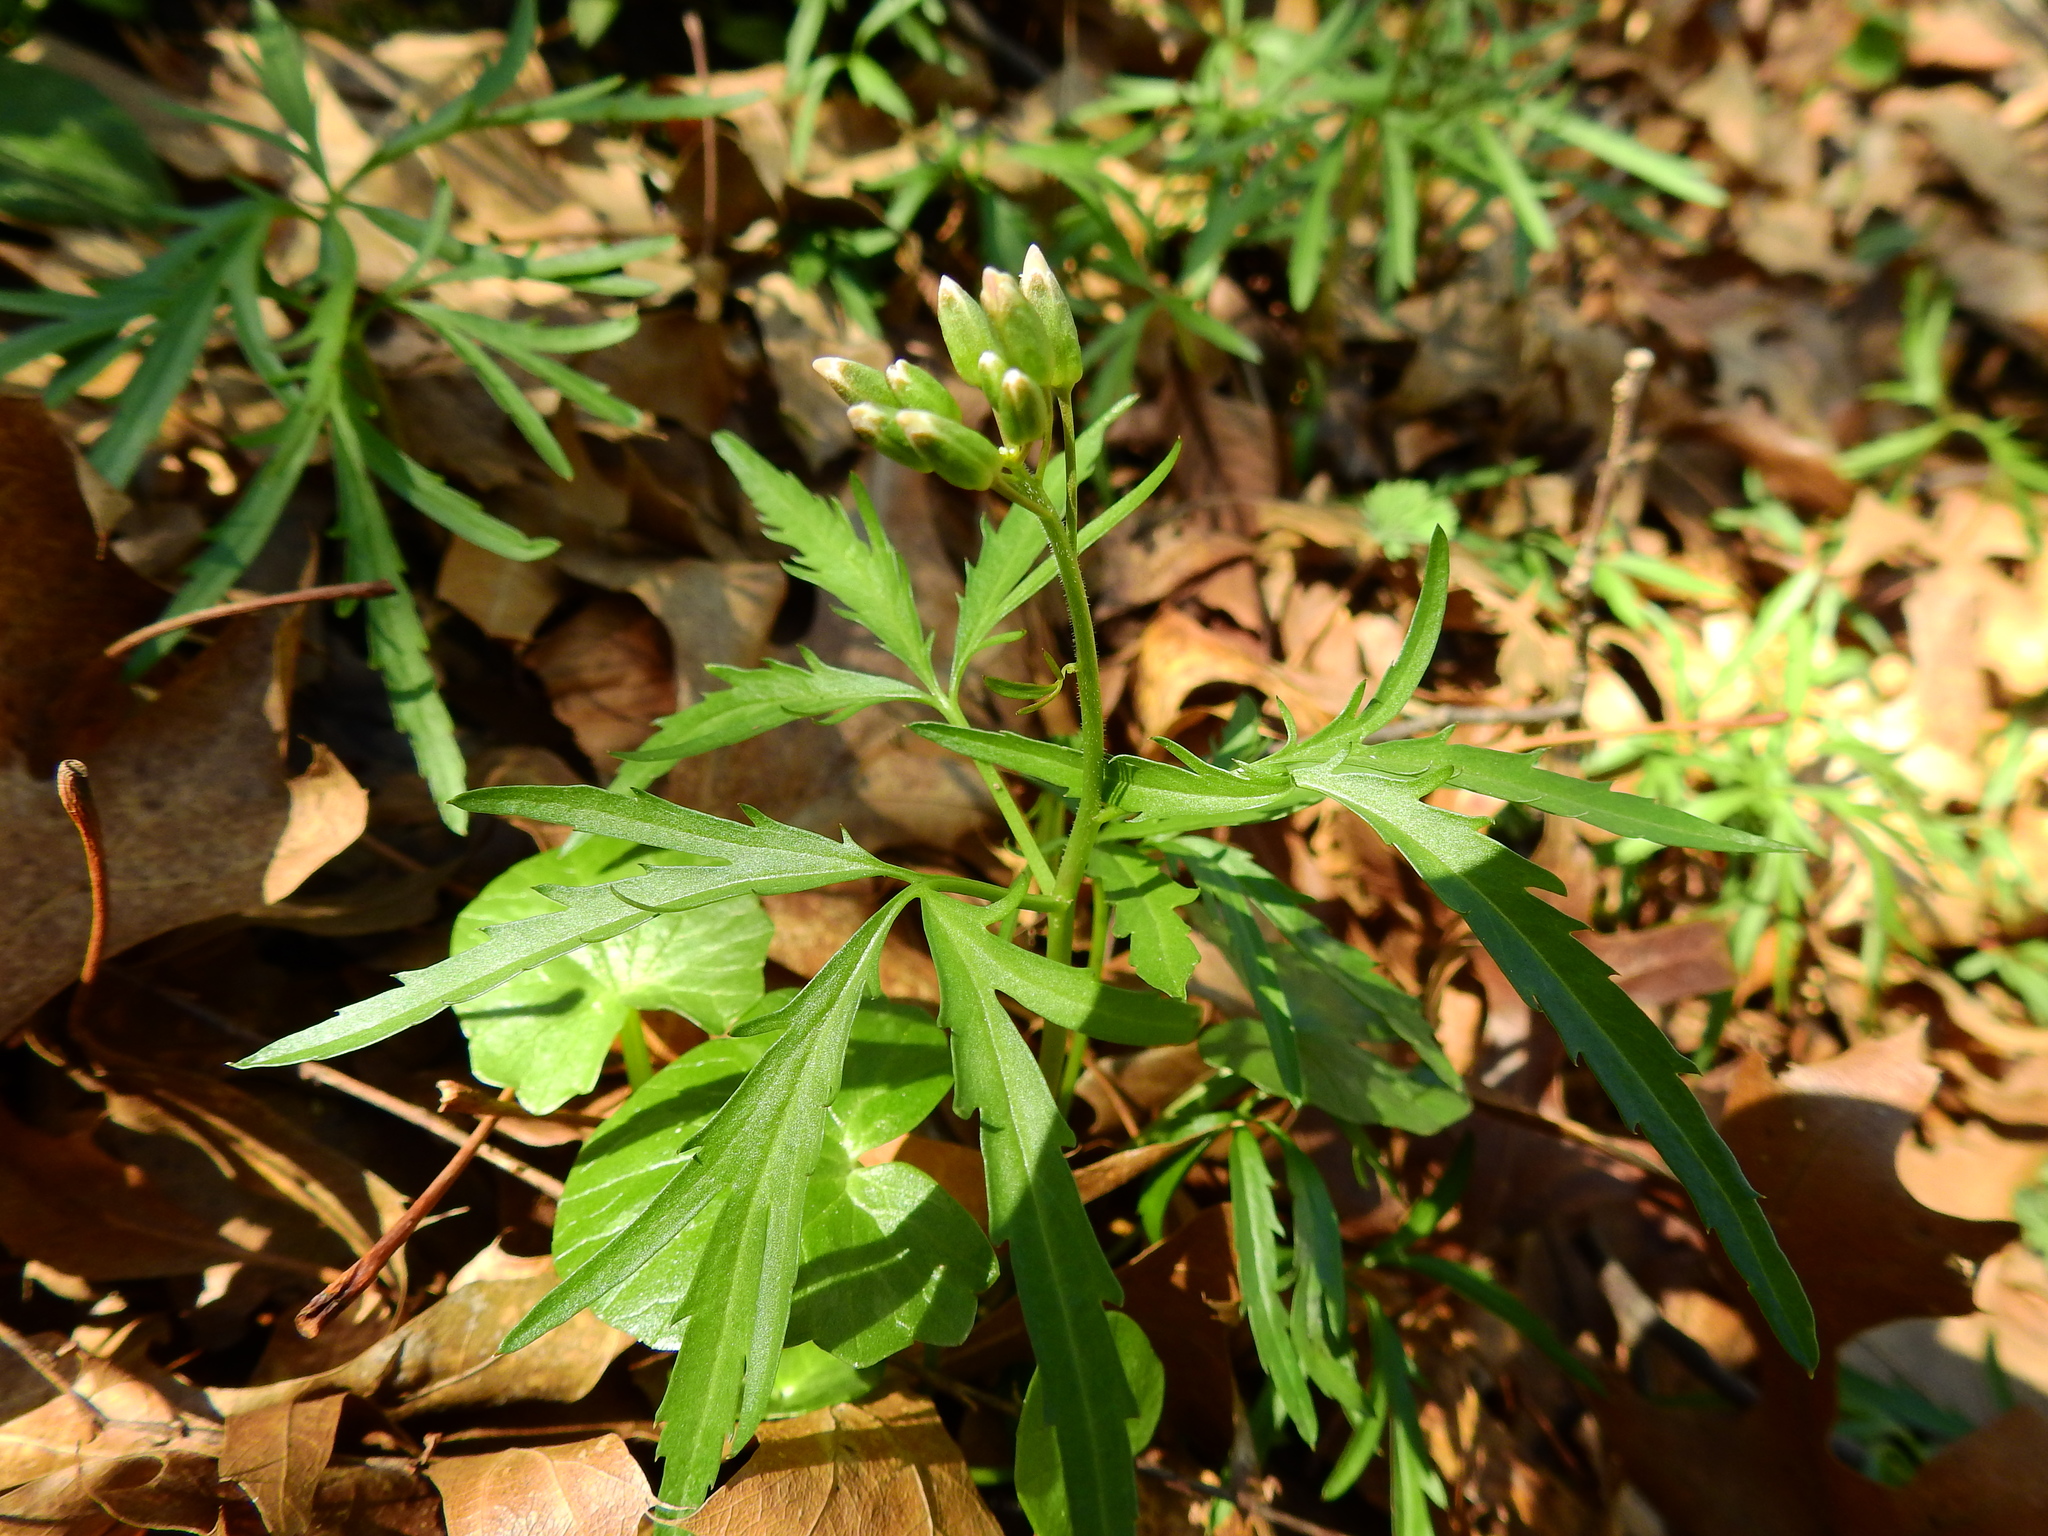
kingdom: Plantae
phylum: Tracheophyta
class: Magnoliopsida
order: Brassicales
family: Brassicaceae
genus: Cardamine
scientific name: Cardamine concatenata
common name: Cut-leaf toothcup
